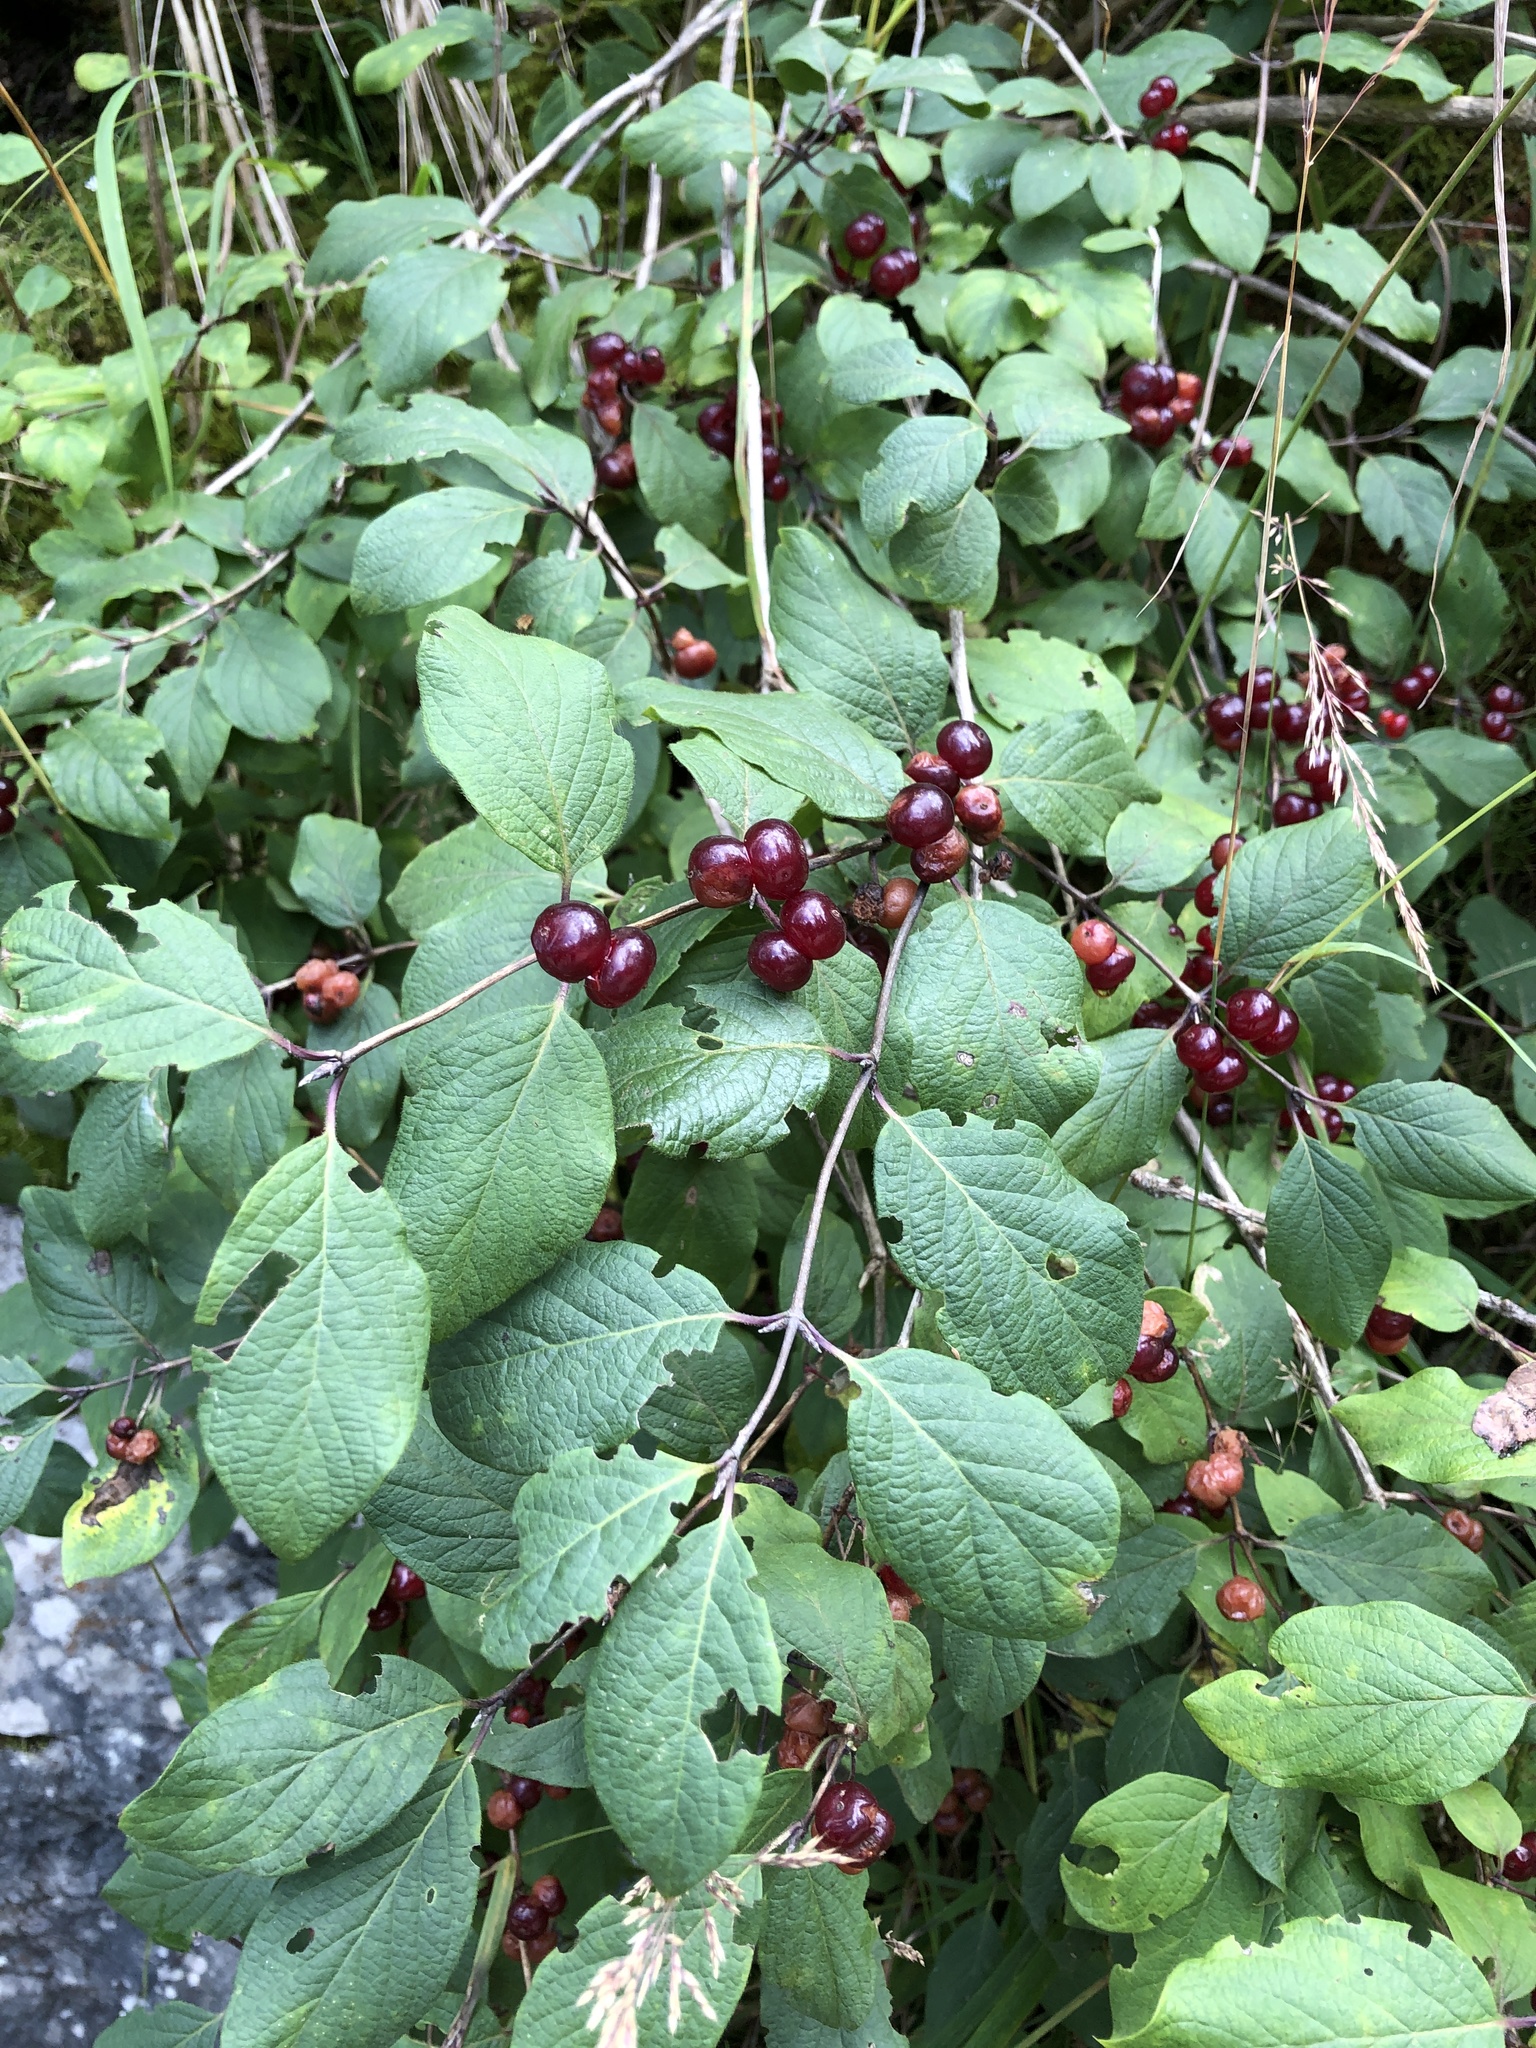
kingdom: Plantae
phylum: Tracheophyta
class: Magnoliopsida
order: Dipsacales
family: Caprifoliaceae
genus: Lonicera
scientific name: Lonicera xylosteum
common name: Fly honeysuckle
